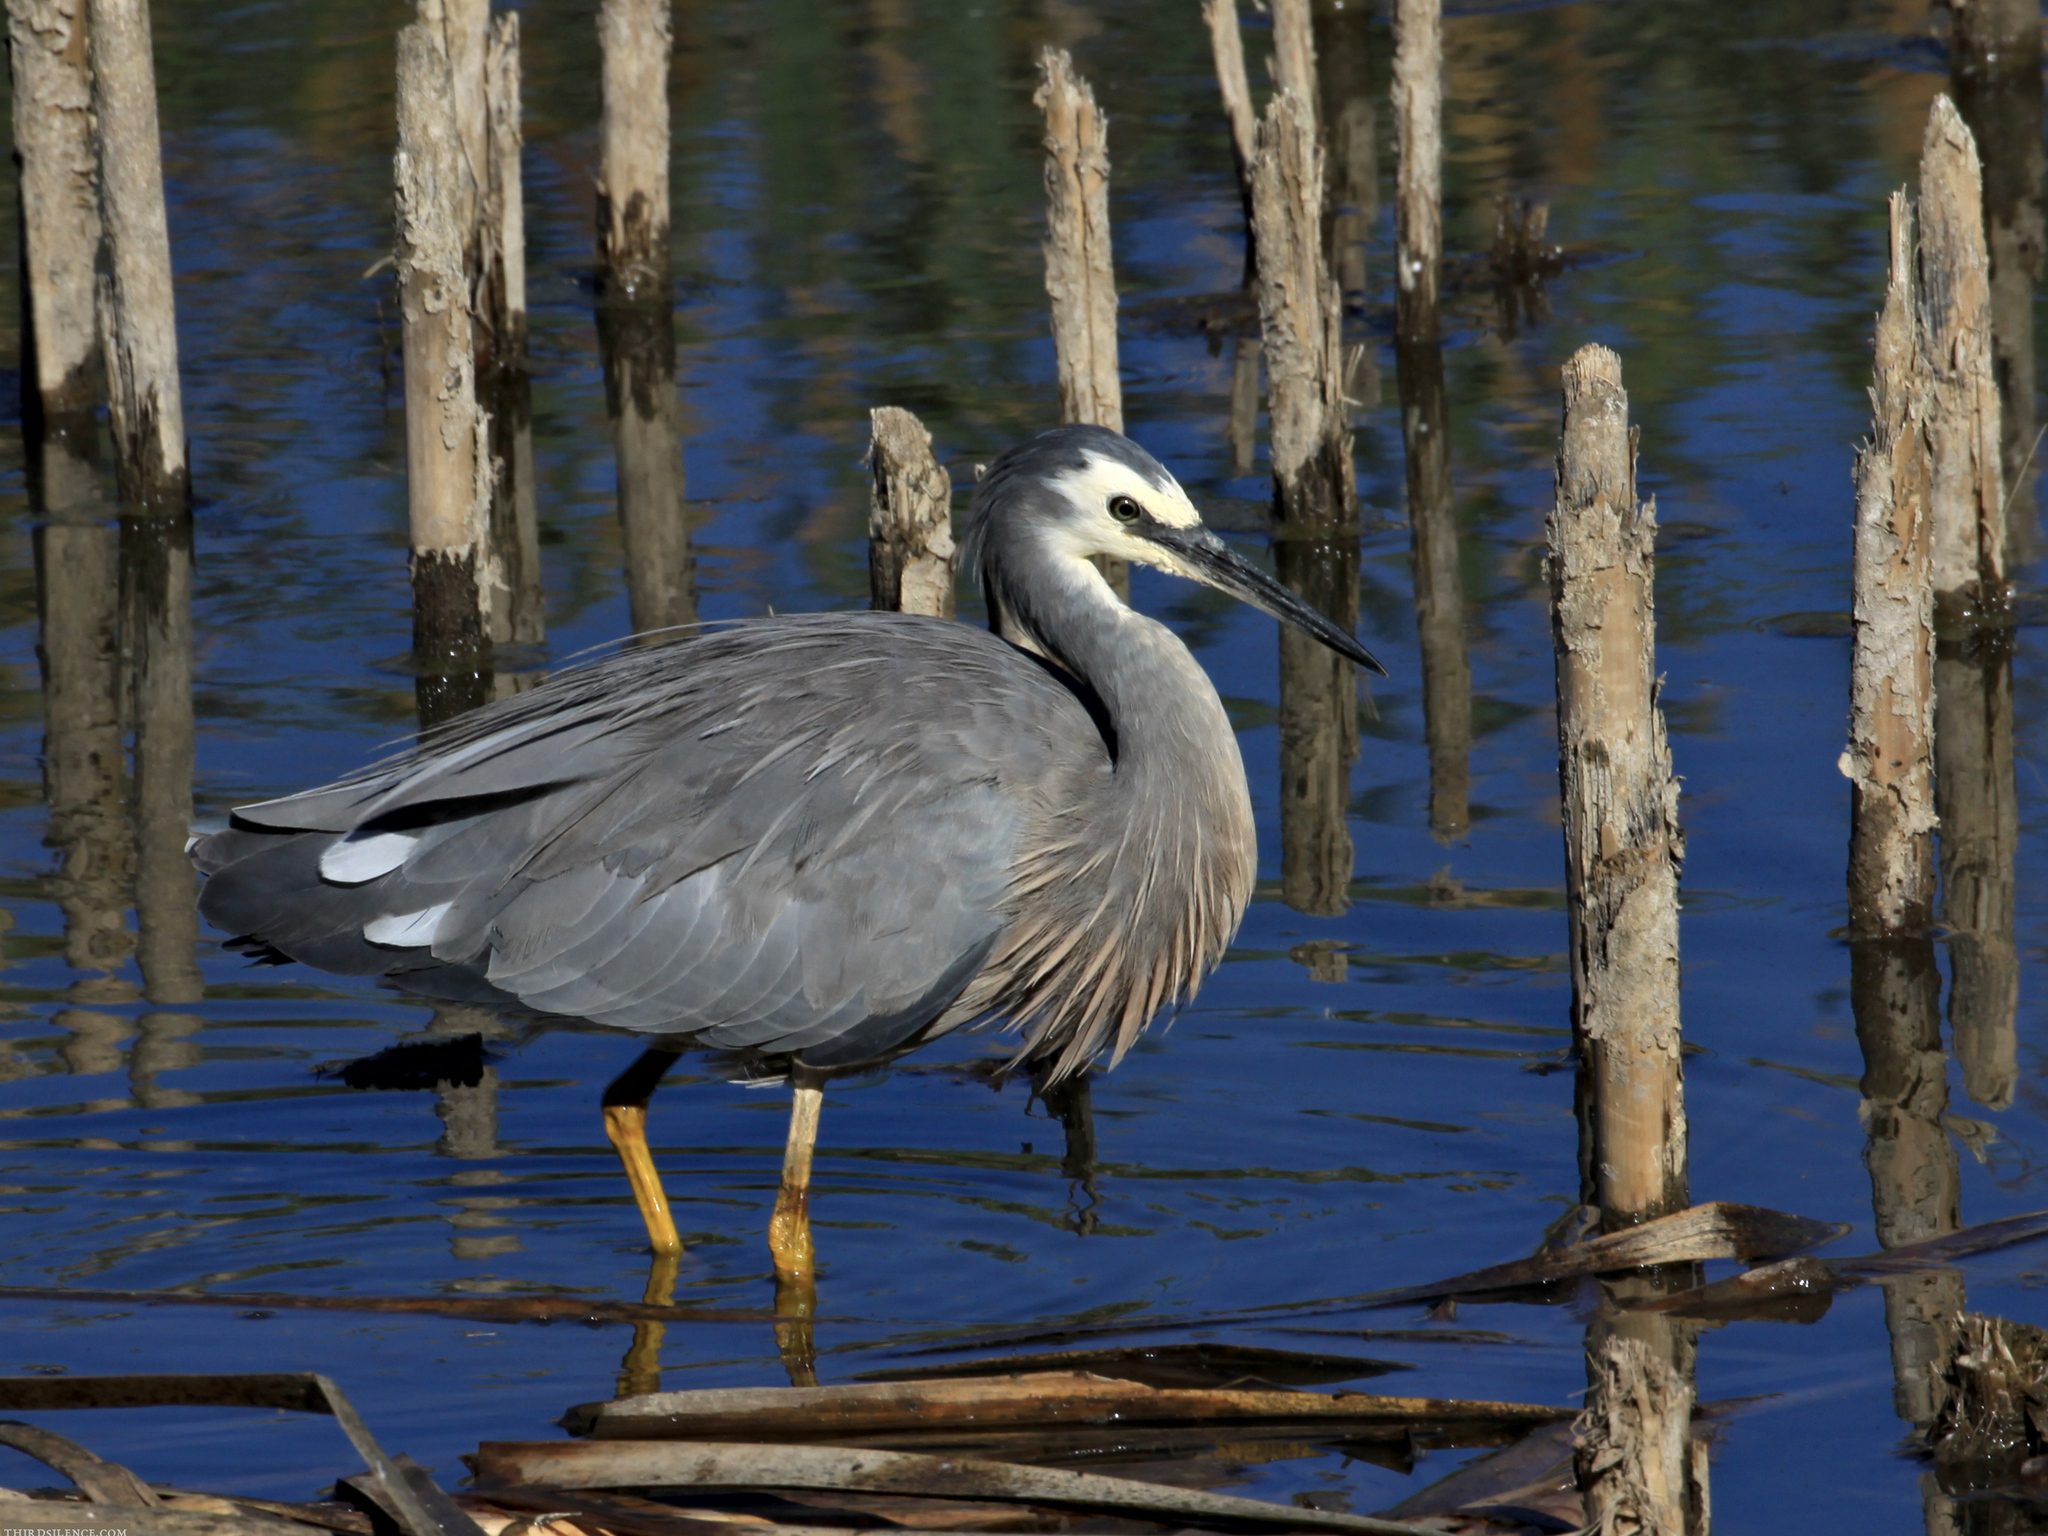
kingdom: Animalia
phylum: Chordata
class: Aves
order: Pelecaniformes
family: Ardeidae
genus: Egretta
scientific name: Egretta novaehollandiae
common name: White-faced heron
